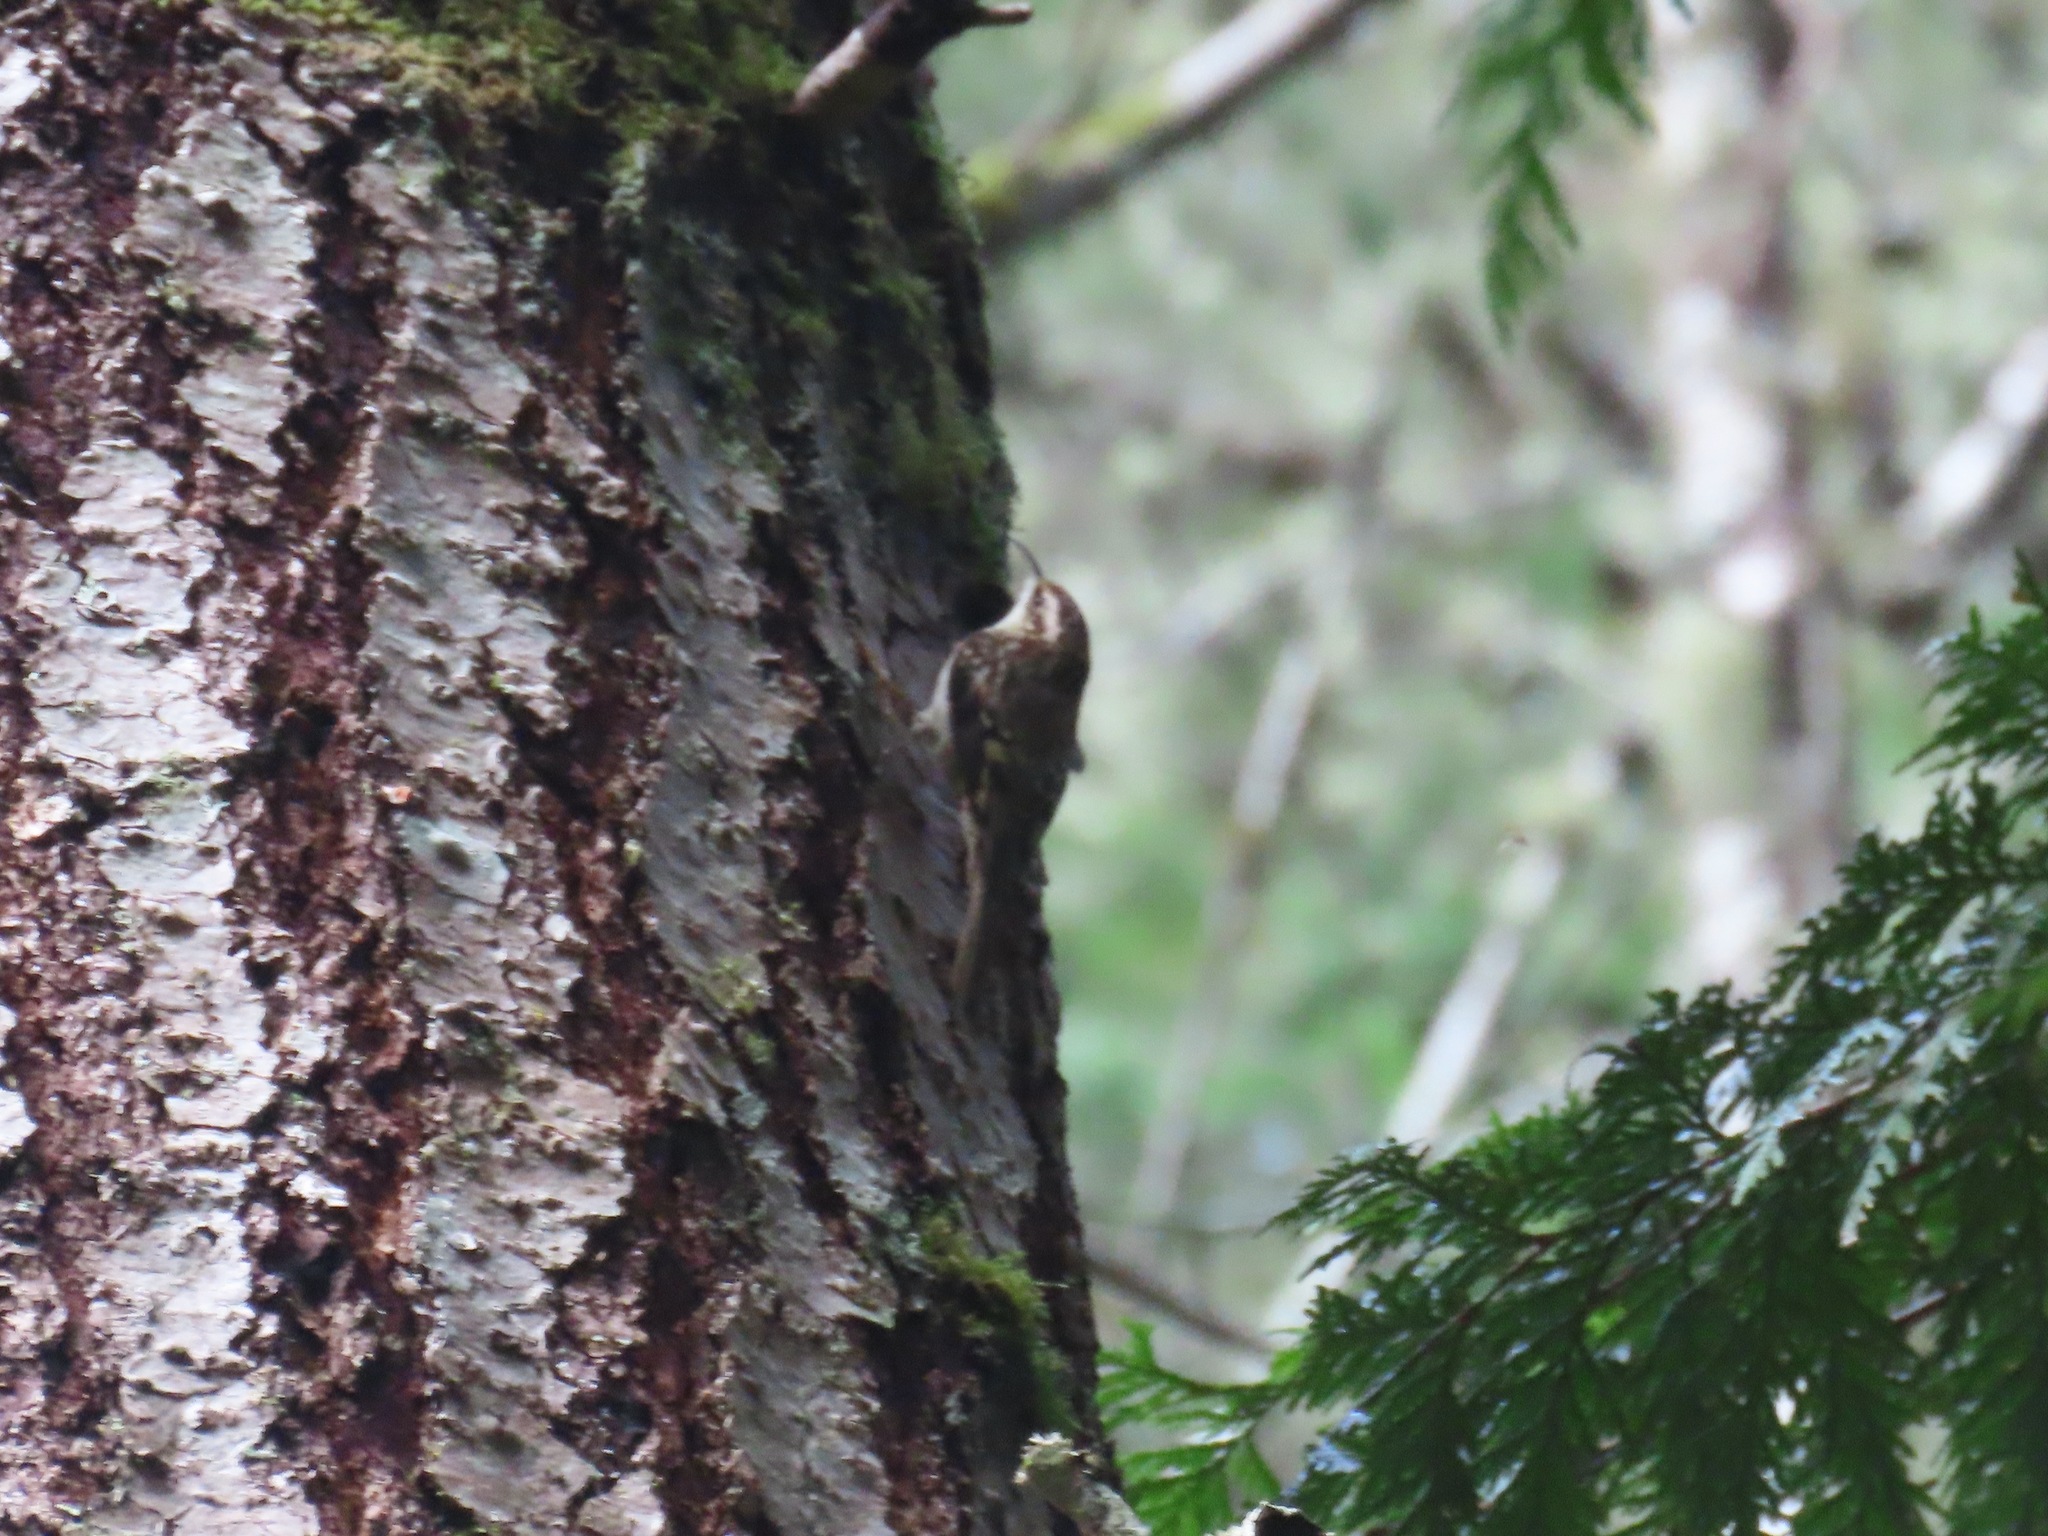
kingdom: Animalia
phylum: Chordata
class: Aves
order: Passeriformes
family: Certhiidae
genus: Certhia
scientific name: Certhia americana
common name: Brown creeper
